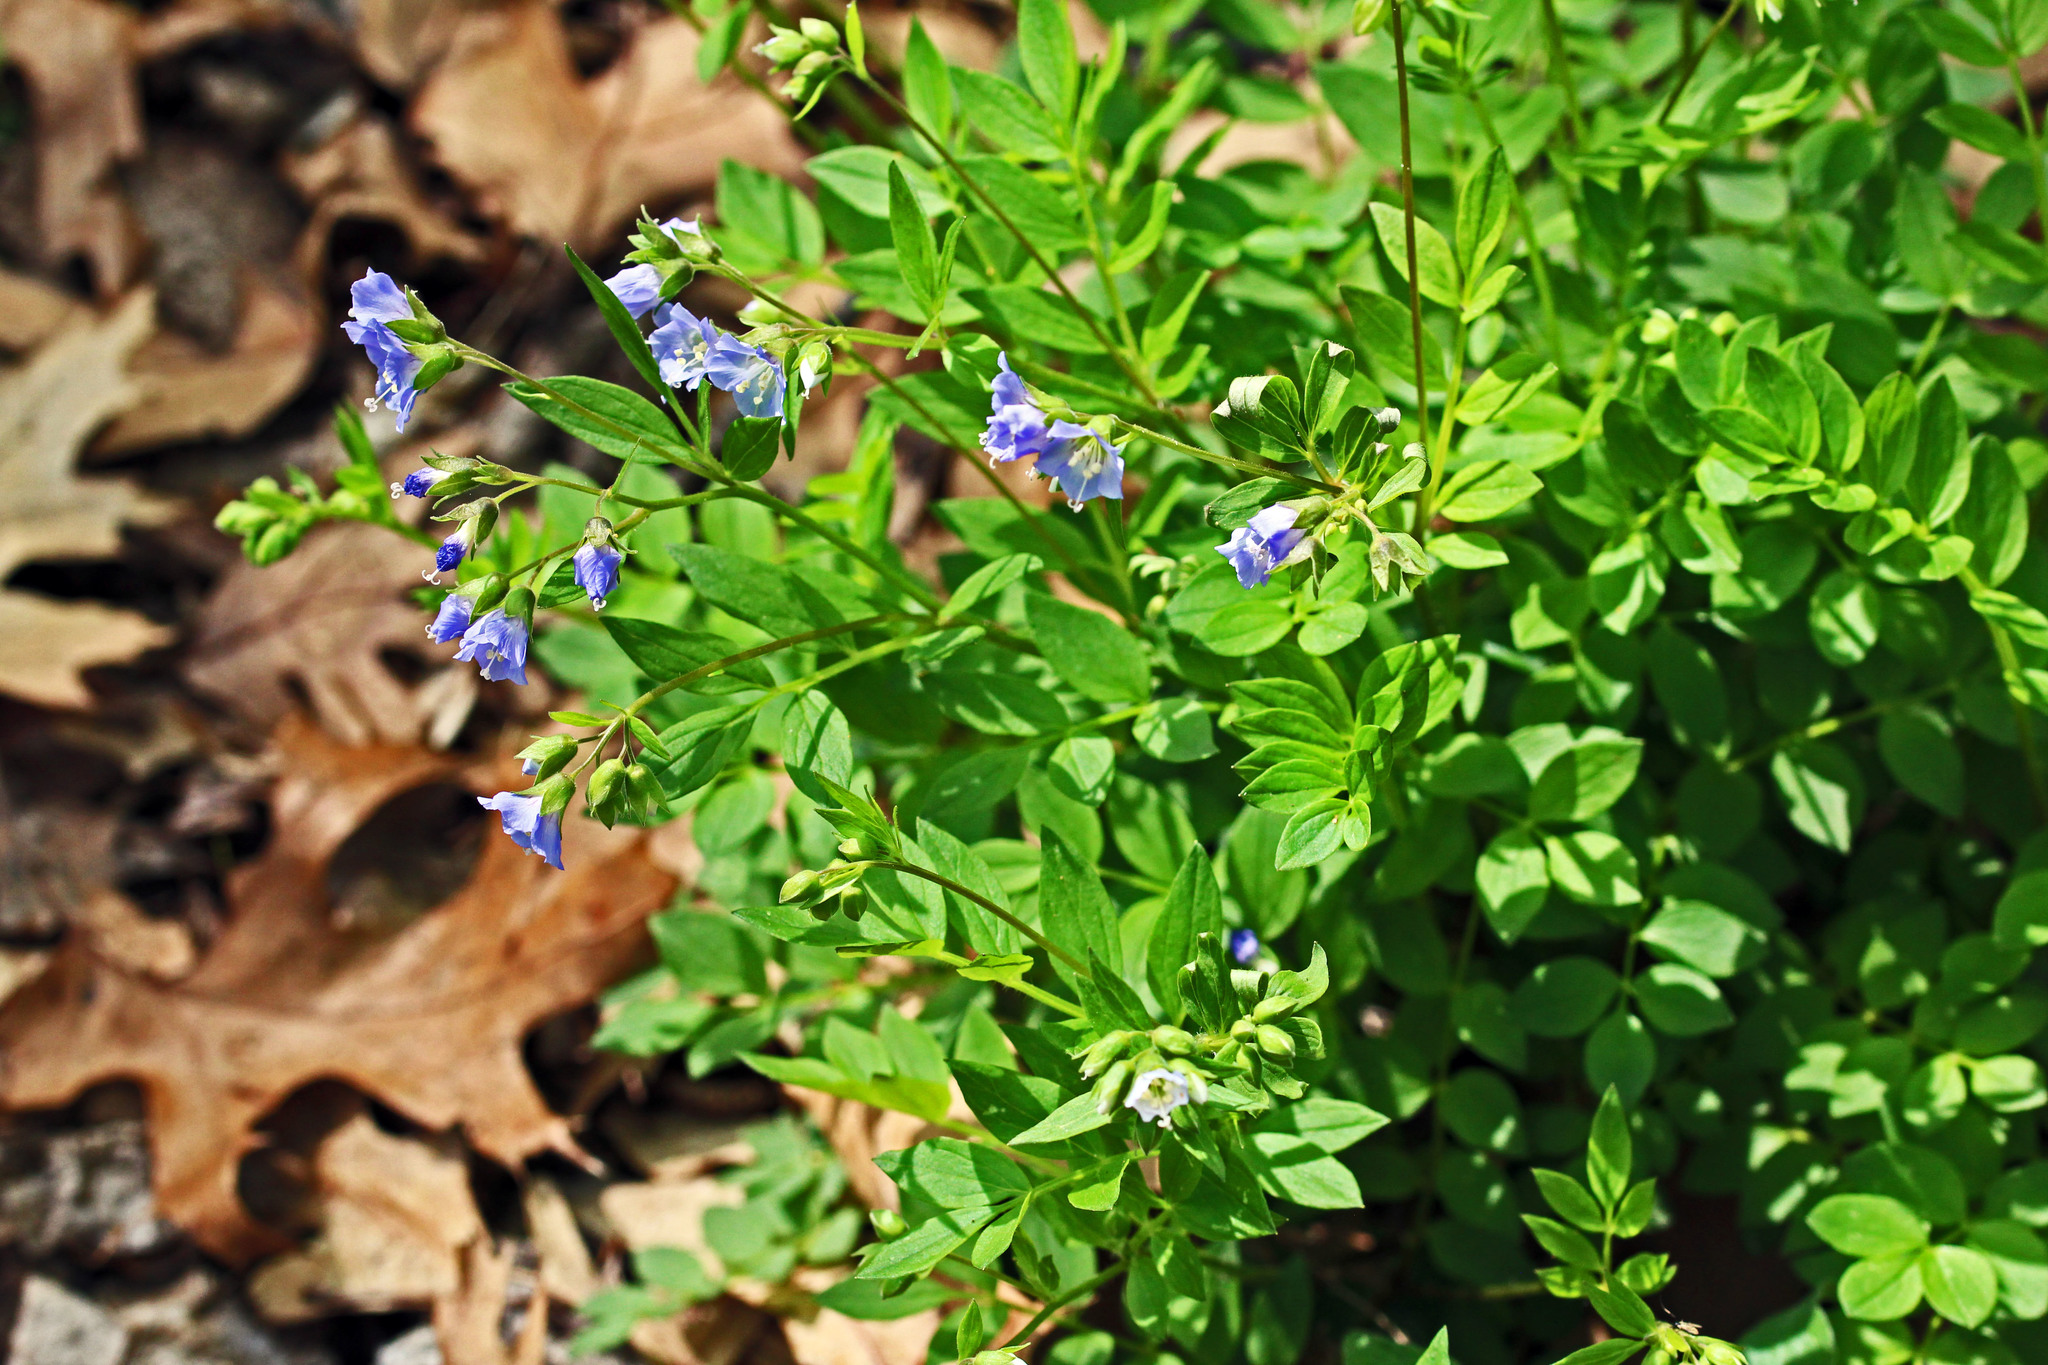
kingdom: Plantae
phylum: Tracheophyta
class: Magnoliopsida
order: Ericales
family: Polemoniaceae
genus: Polemonium
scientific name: Polemonium reptans
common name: Creeping jacob's-ladder
